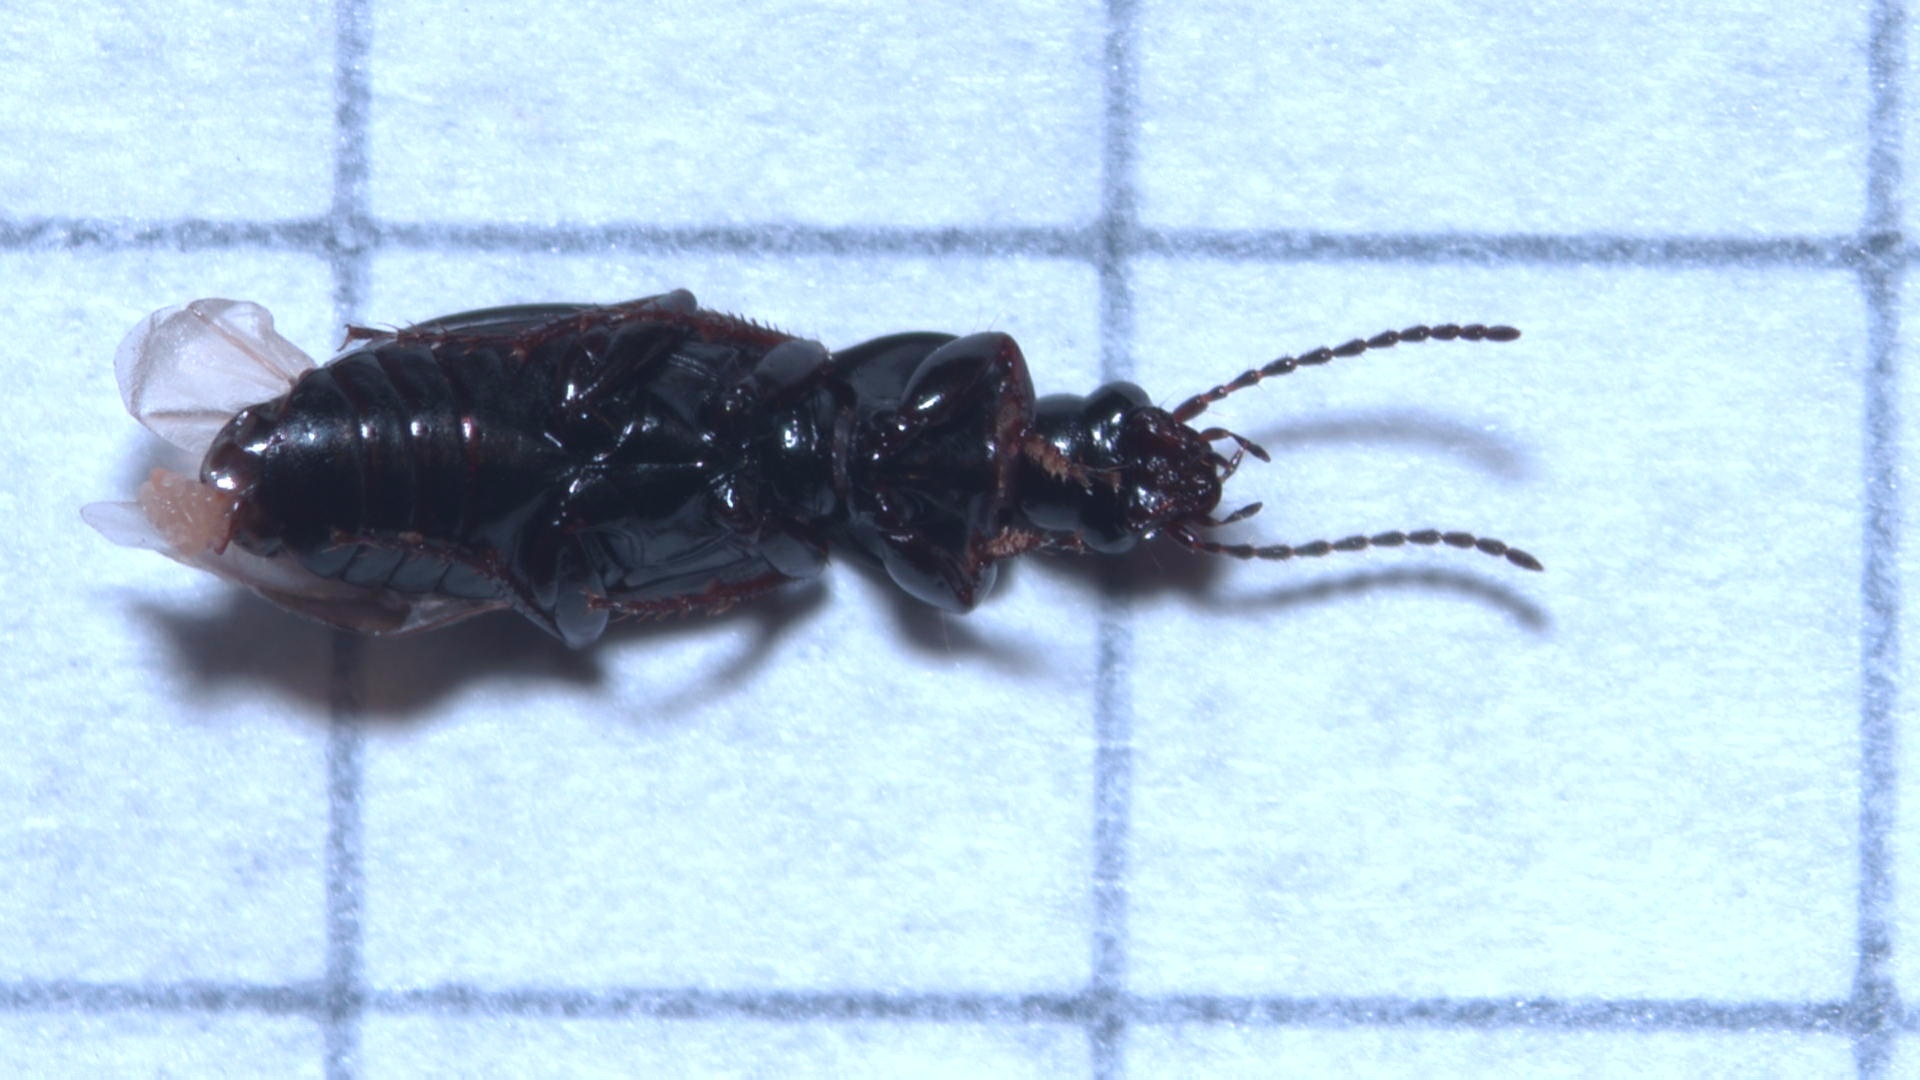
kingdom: Animalia
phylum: Arthropoda
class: Insecta
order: Coleoptera
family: Carabidae
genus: Pterostichus
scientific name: Pterostichus diligens
